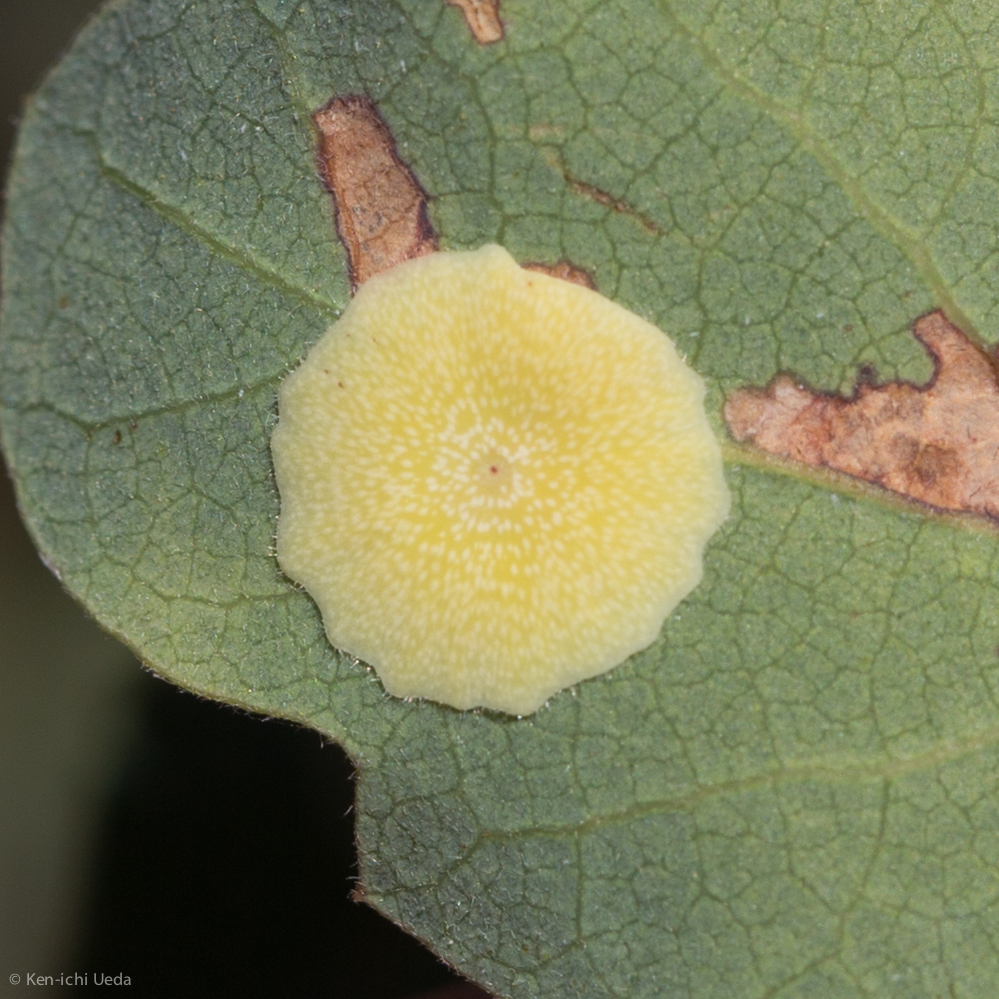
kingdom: Animalia
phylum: Arthropoda
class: Insecta
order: Hymenoptera
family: Cynipidae
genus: Andricus
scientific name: Andricus
